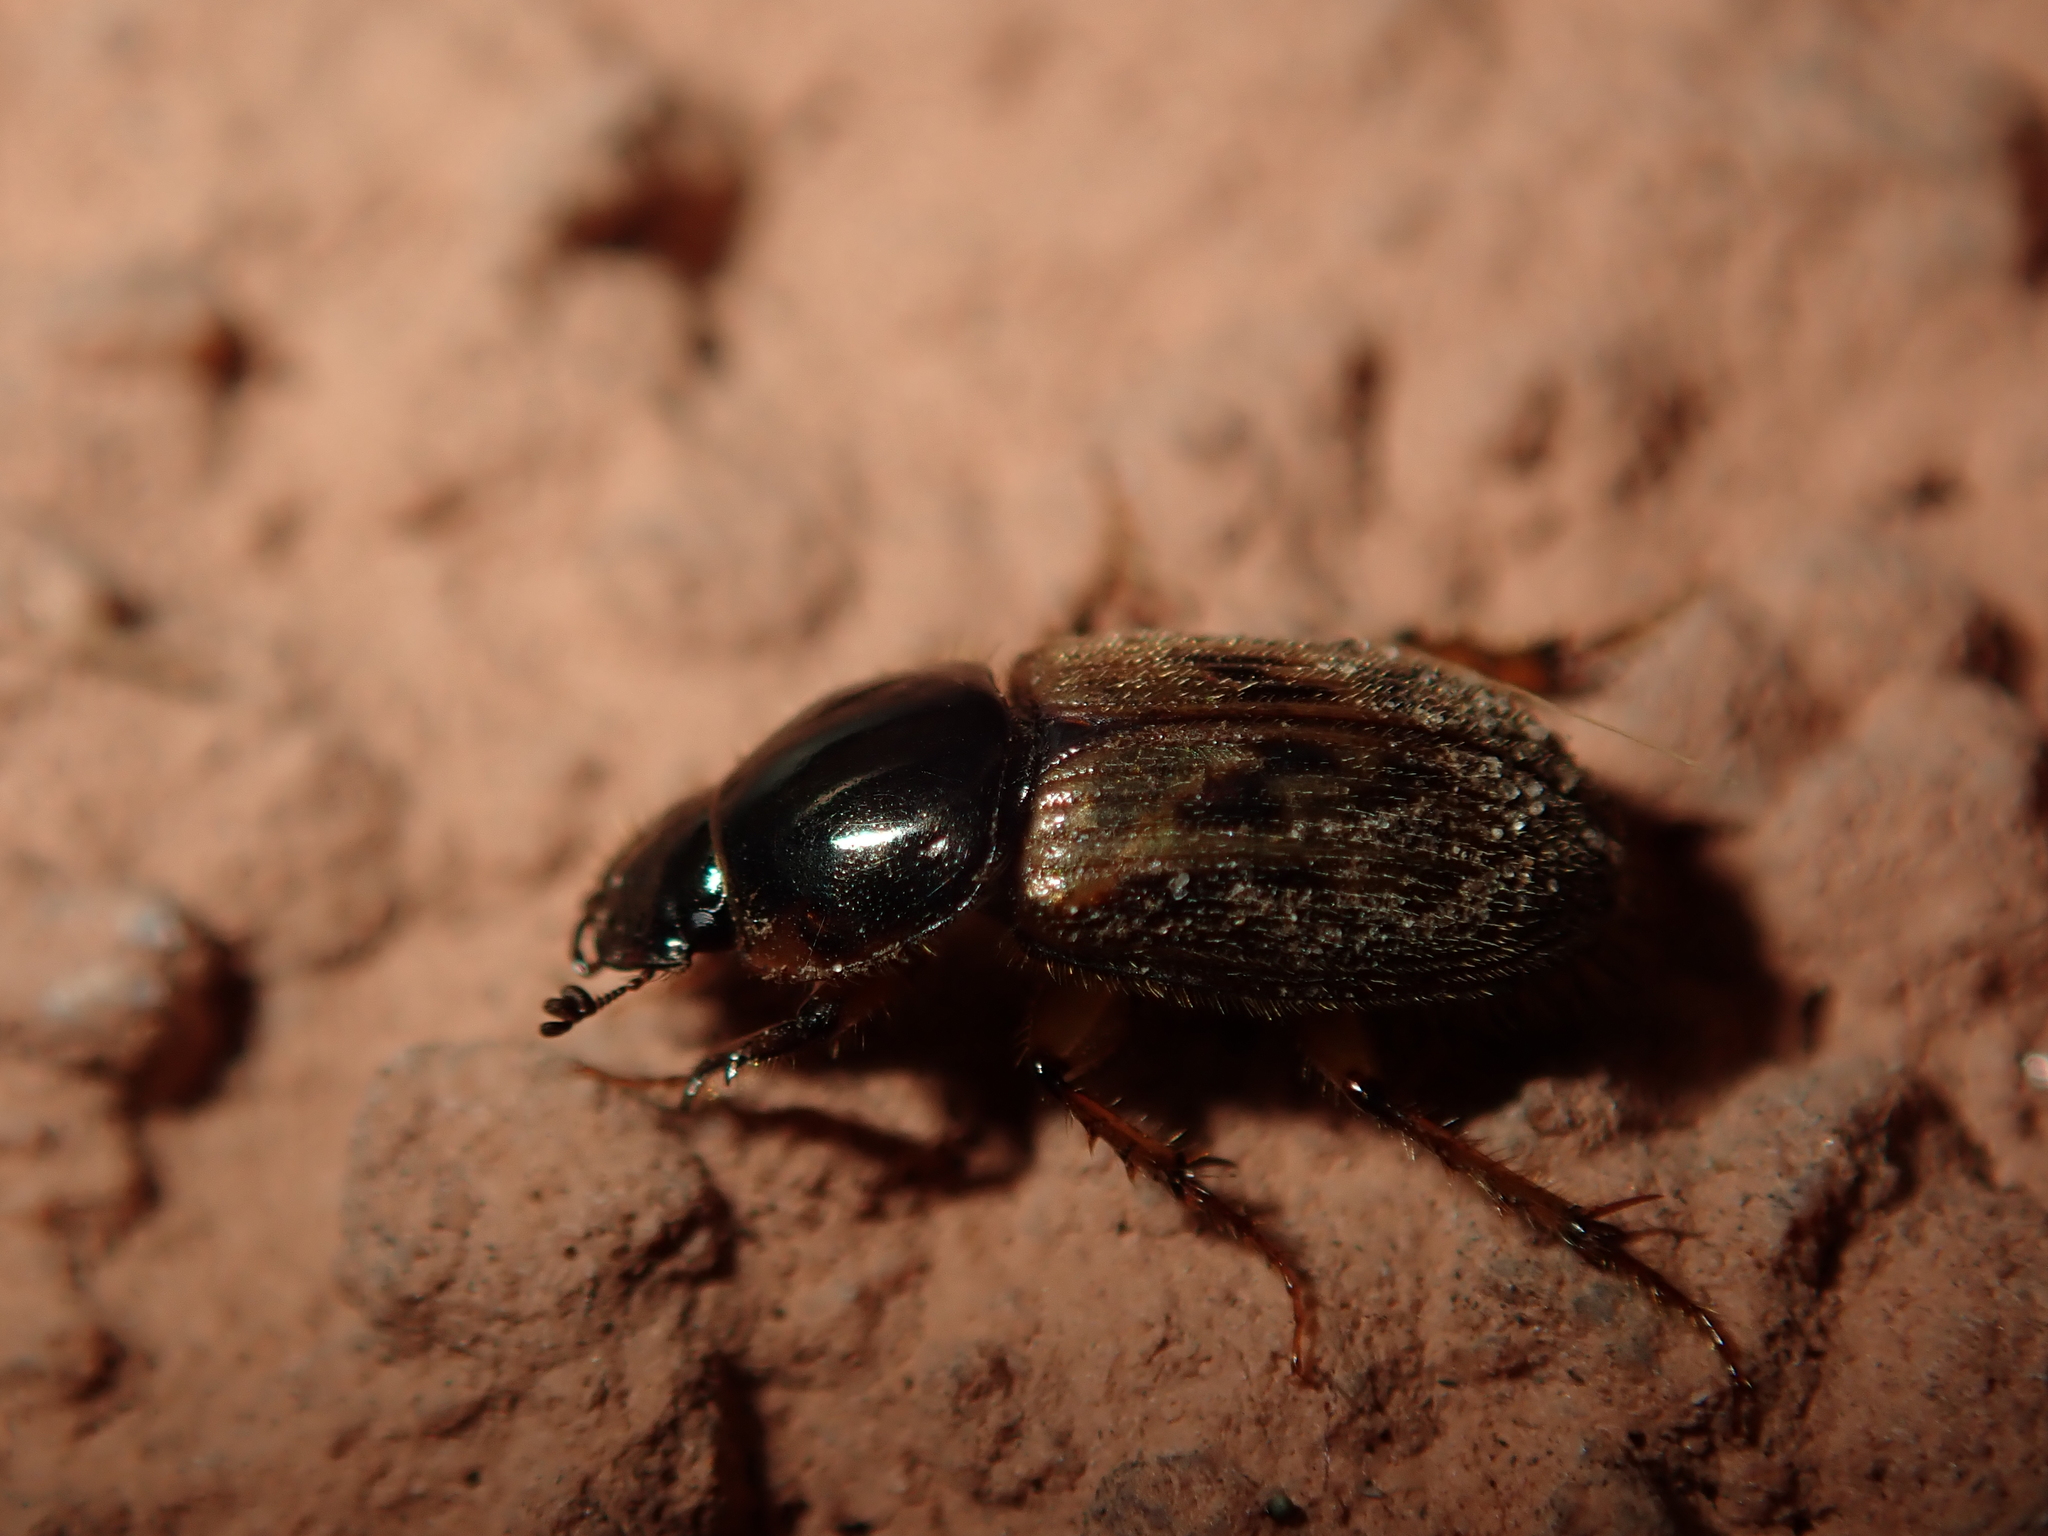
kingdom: Animalia
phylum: Arthropoda
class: Insecta
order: Coleoptera
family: Scarabaeidae
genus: Nimbus
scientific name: Nimbus contaminatus
